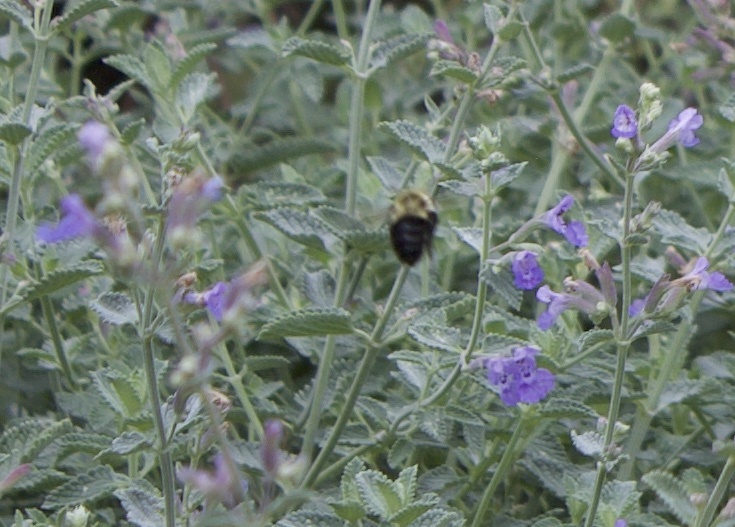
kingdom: Animalia
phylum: Arthropoda
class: Insecta
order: Hymenoptera
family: Apidae
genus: Bombus
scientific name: Bombus impatiens
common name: Common eastern bumble bee
